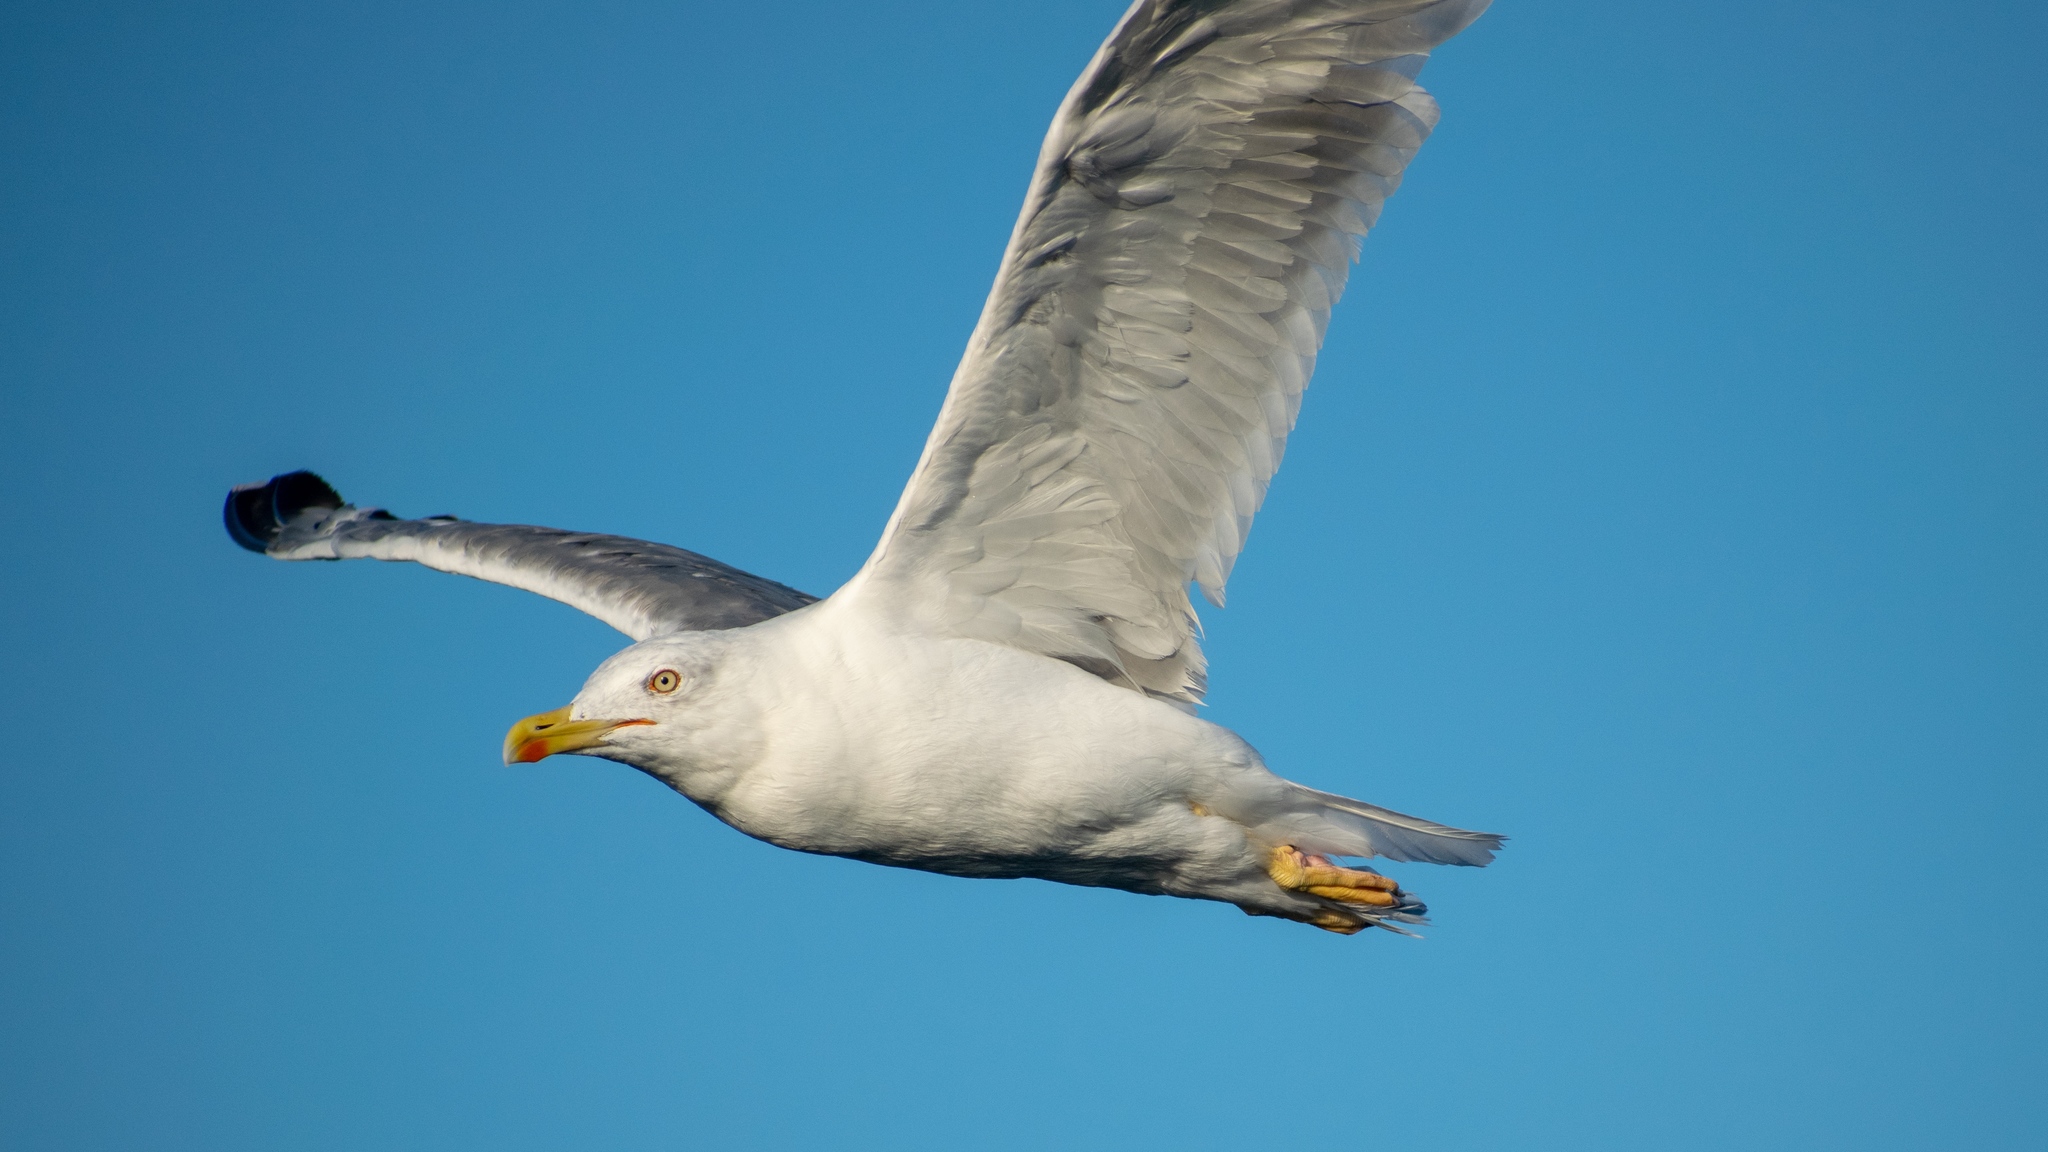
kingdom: Animalia
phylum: Chordata
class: Aves
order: Charadriiformes
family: Laridae
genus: Larus
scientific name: Larus michahellis
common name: Yellow-legged gull
